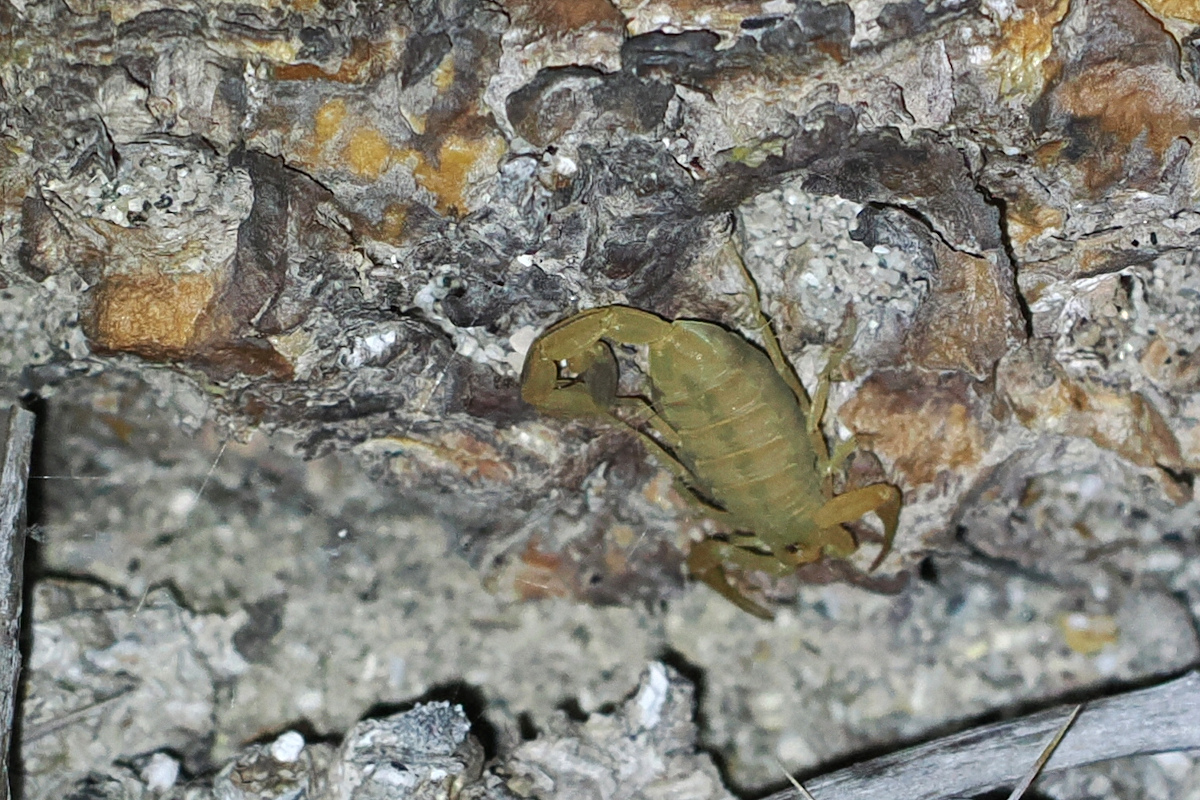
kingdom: Animalia
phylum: Arthropoda
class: Arachnida
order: Scorpiones
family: Buthidae
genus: Centruroides
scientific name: Centruroides exilicauda
